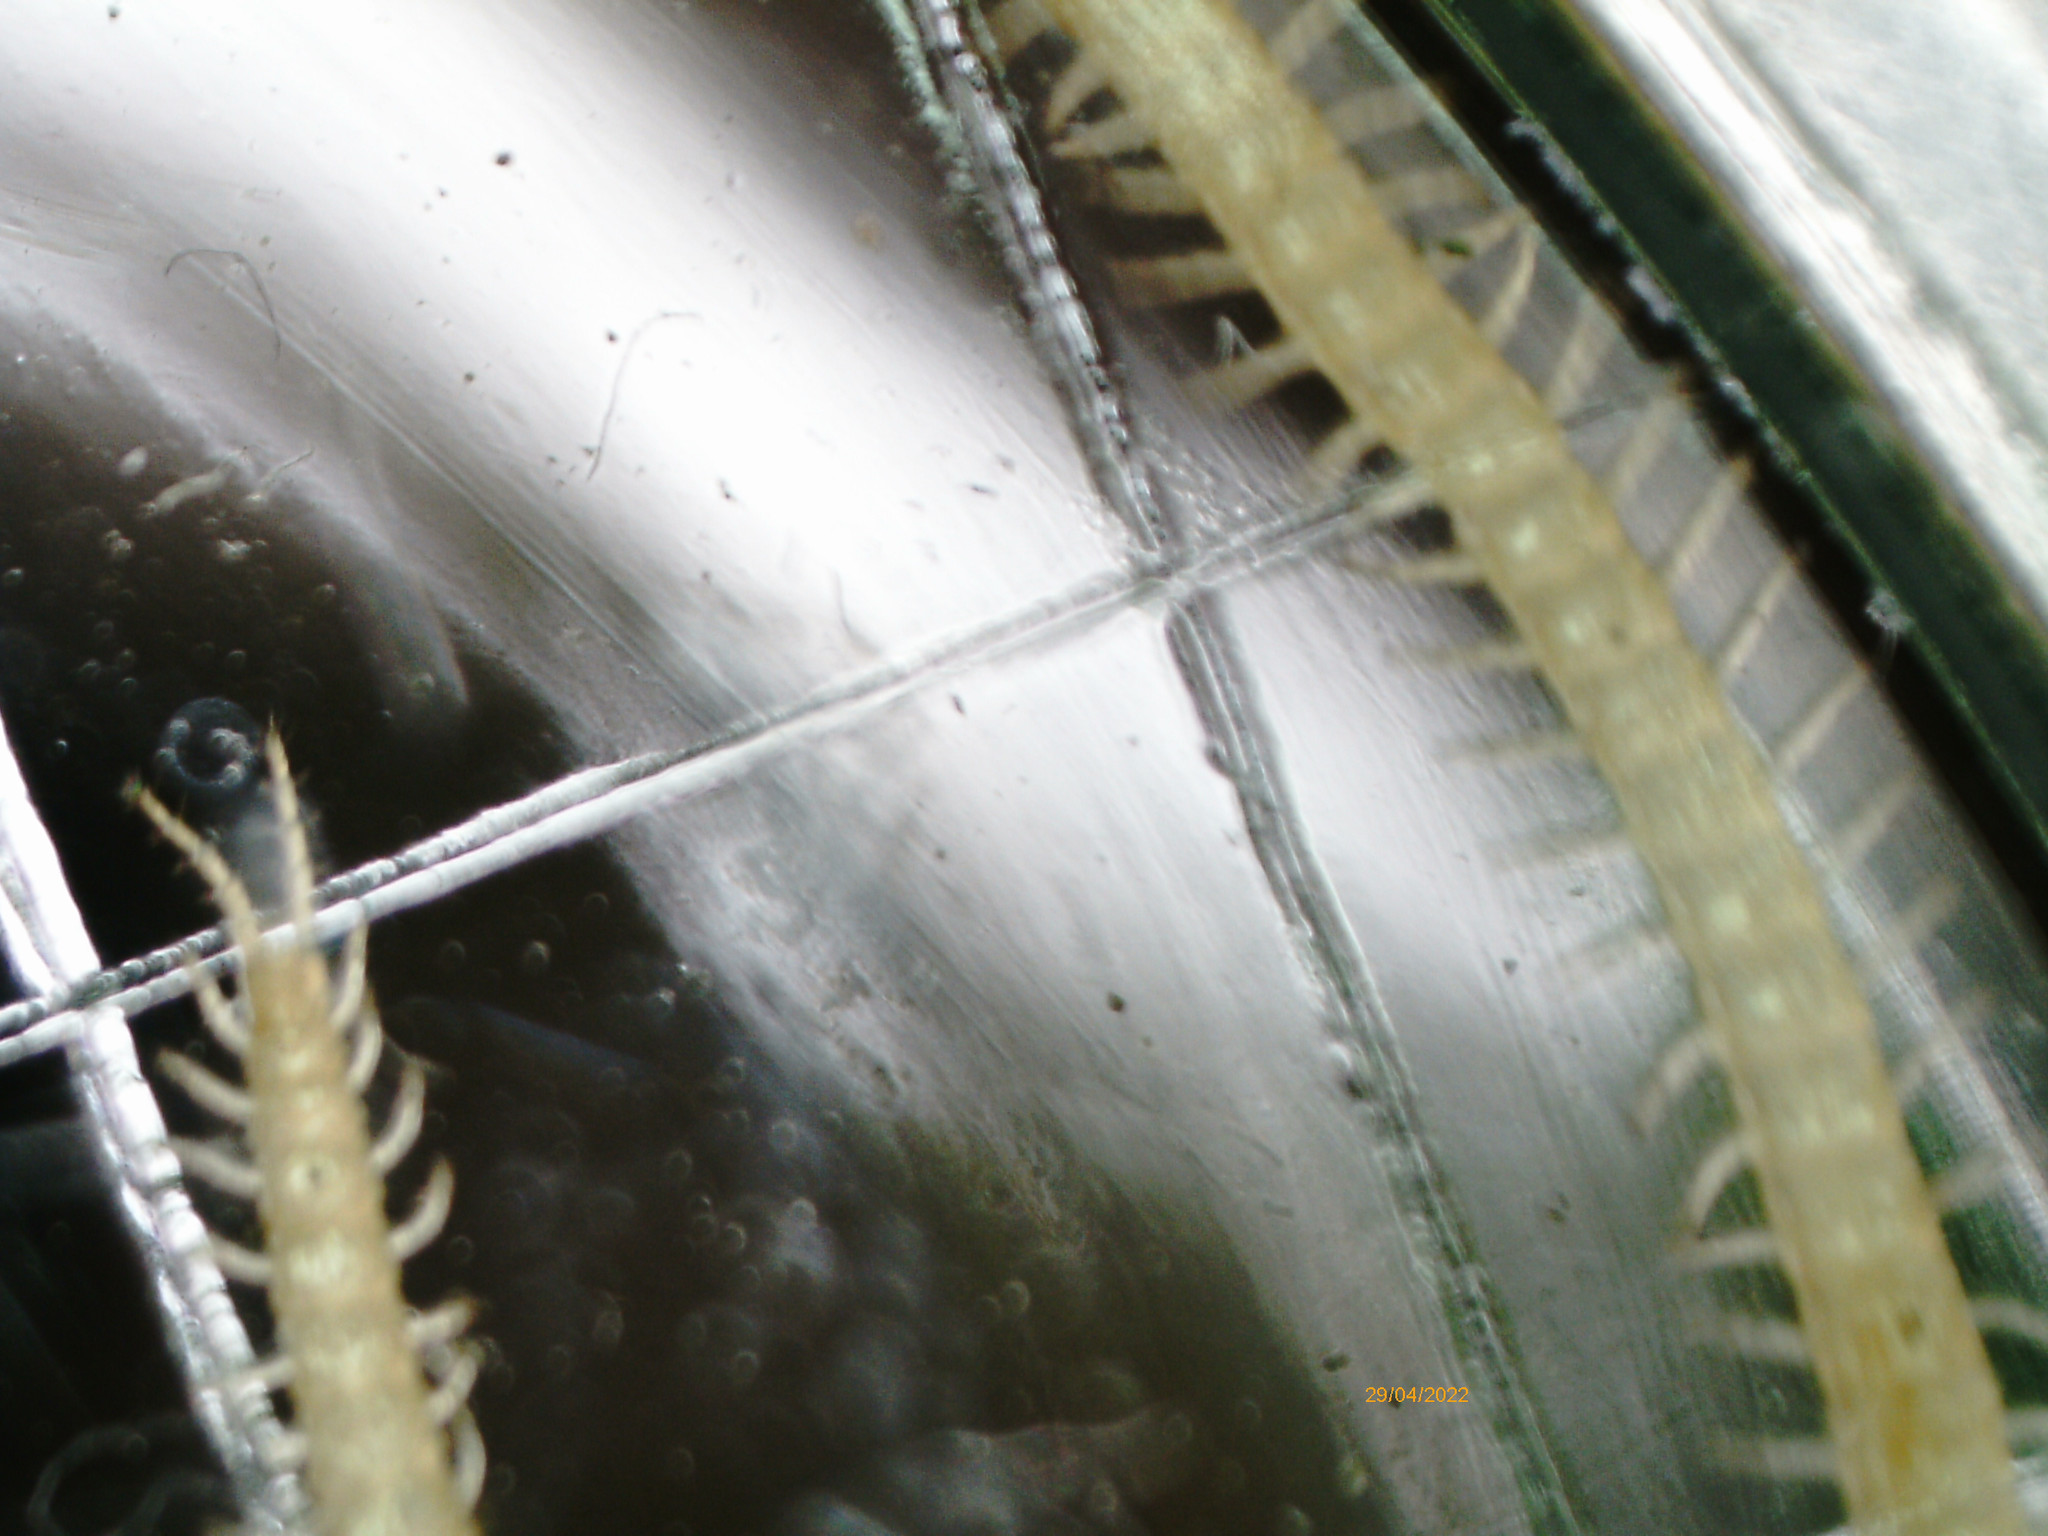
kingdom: Animalia
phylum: Arthropoda
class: Chilopoda
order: Geophilomorpha
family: Geophilidae
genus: Geophilus
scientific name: Geophilus flavus
